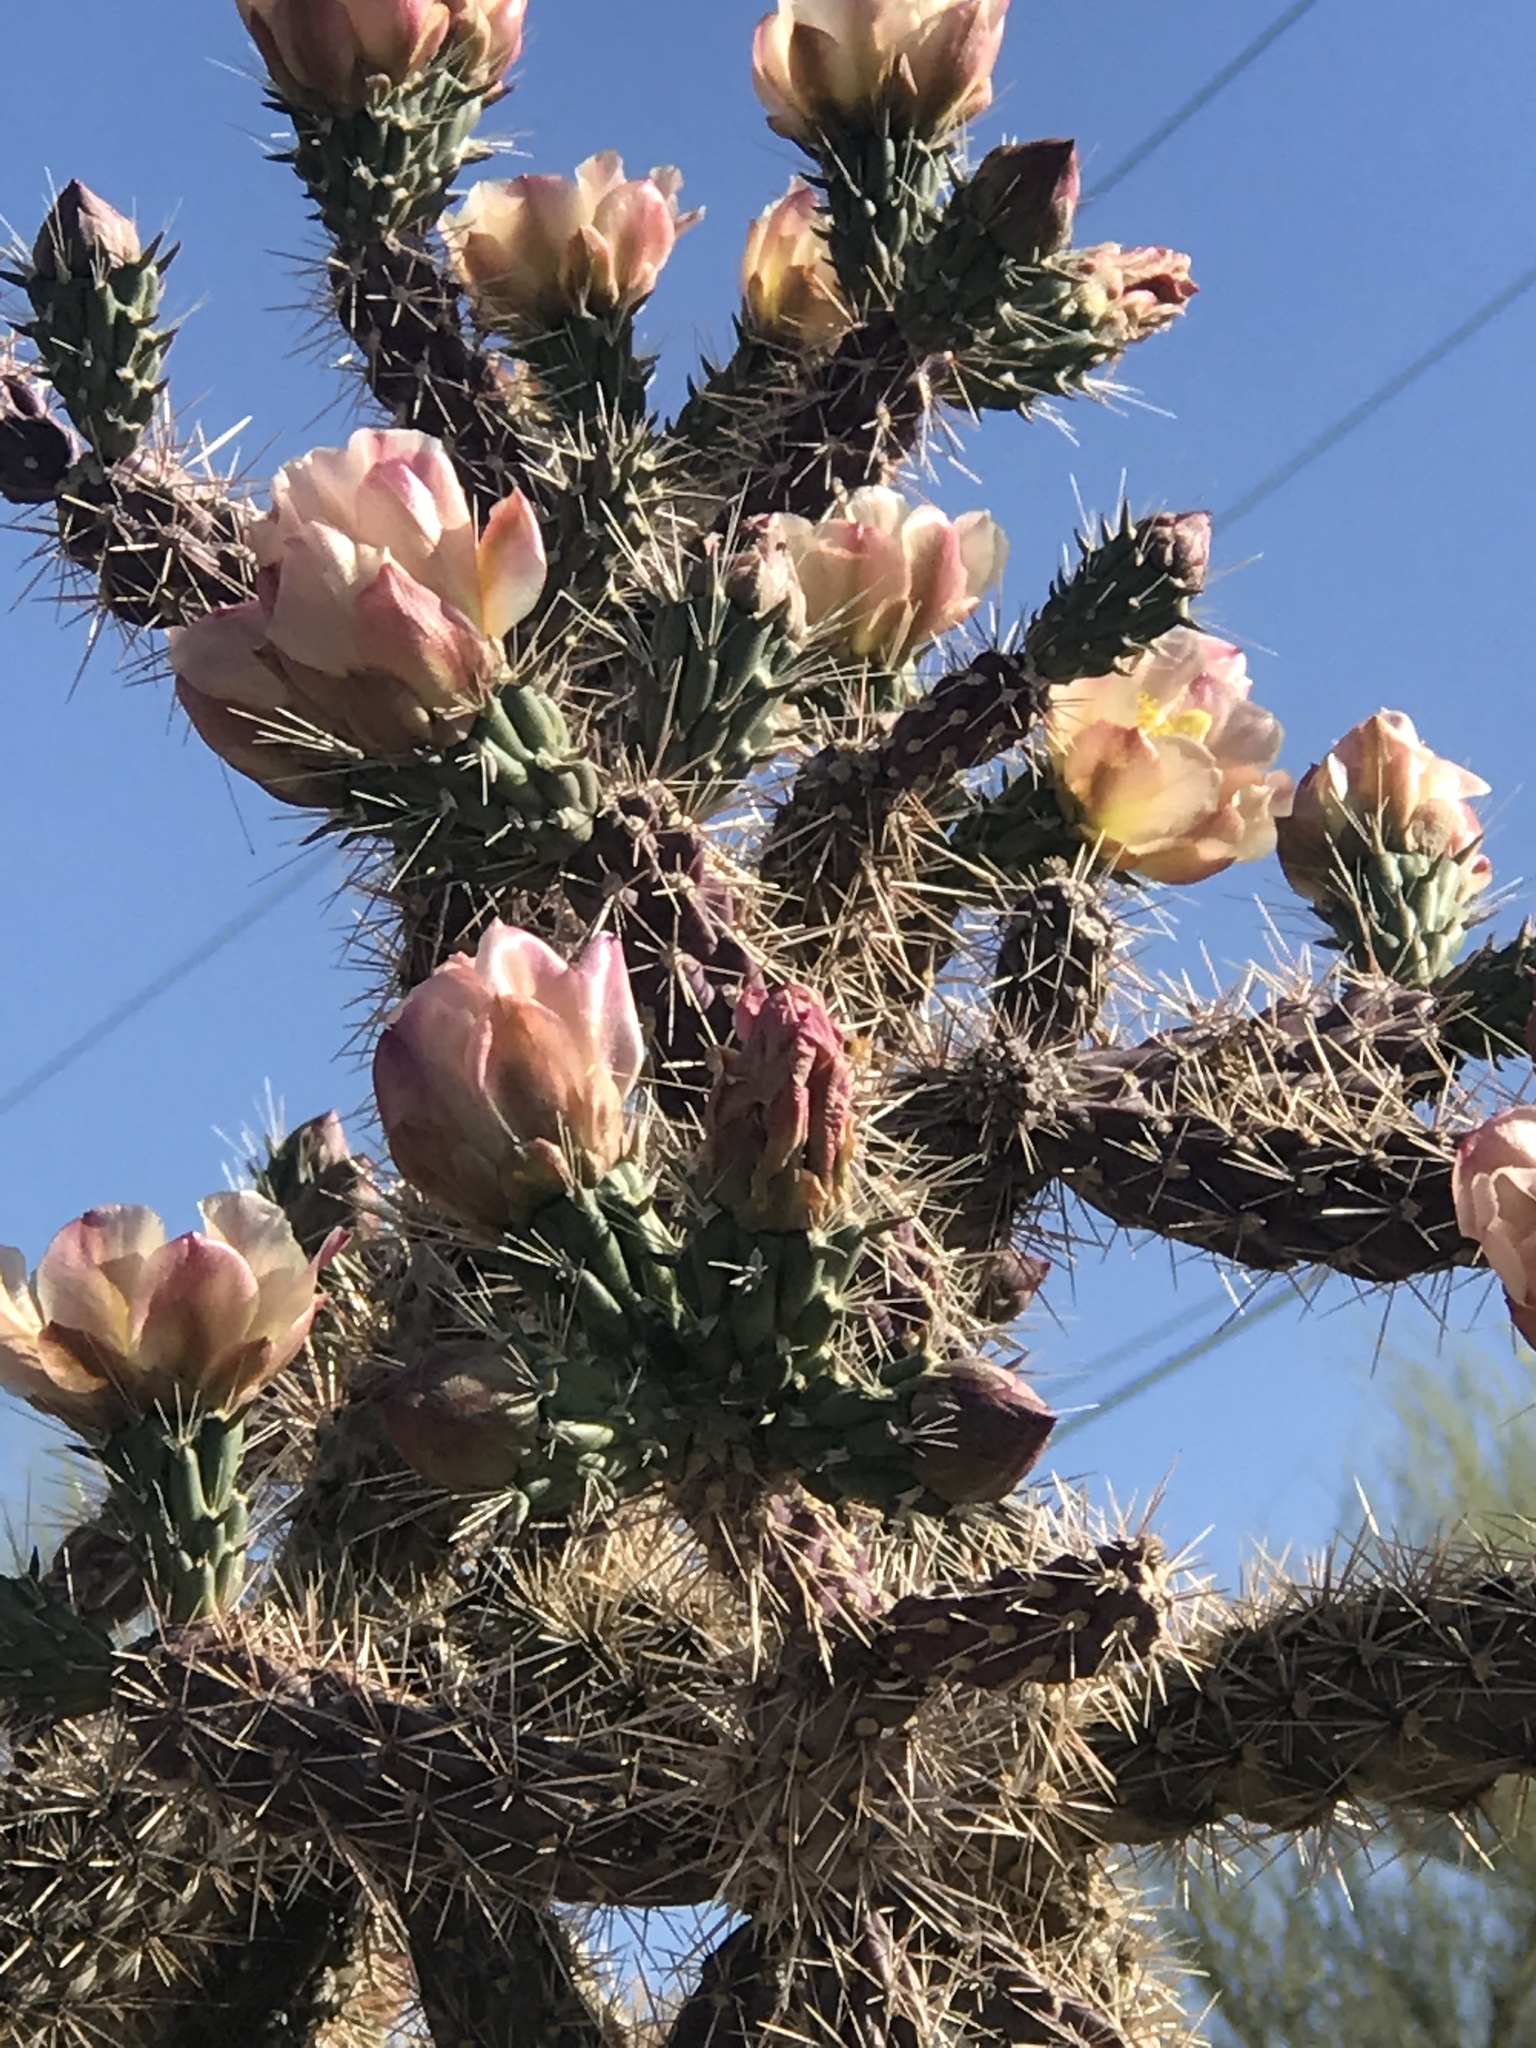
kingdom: Plantae
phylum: Tracheophyta
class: Magnoliopsida
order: Caryophyllales
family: Cactaceae
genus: Cylindropuntia
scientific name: Cylindropuntia imbricata
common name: Candelabrum cactus
